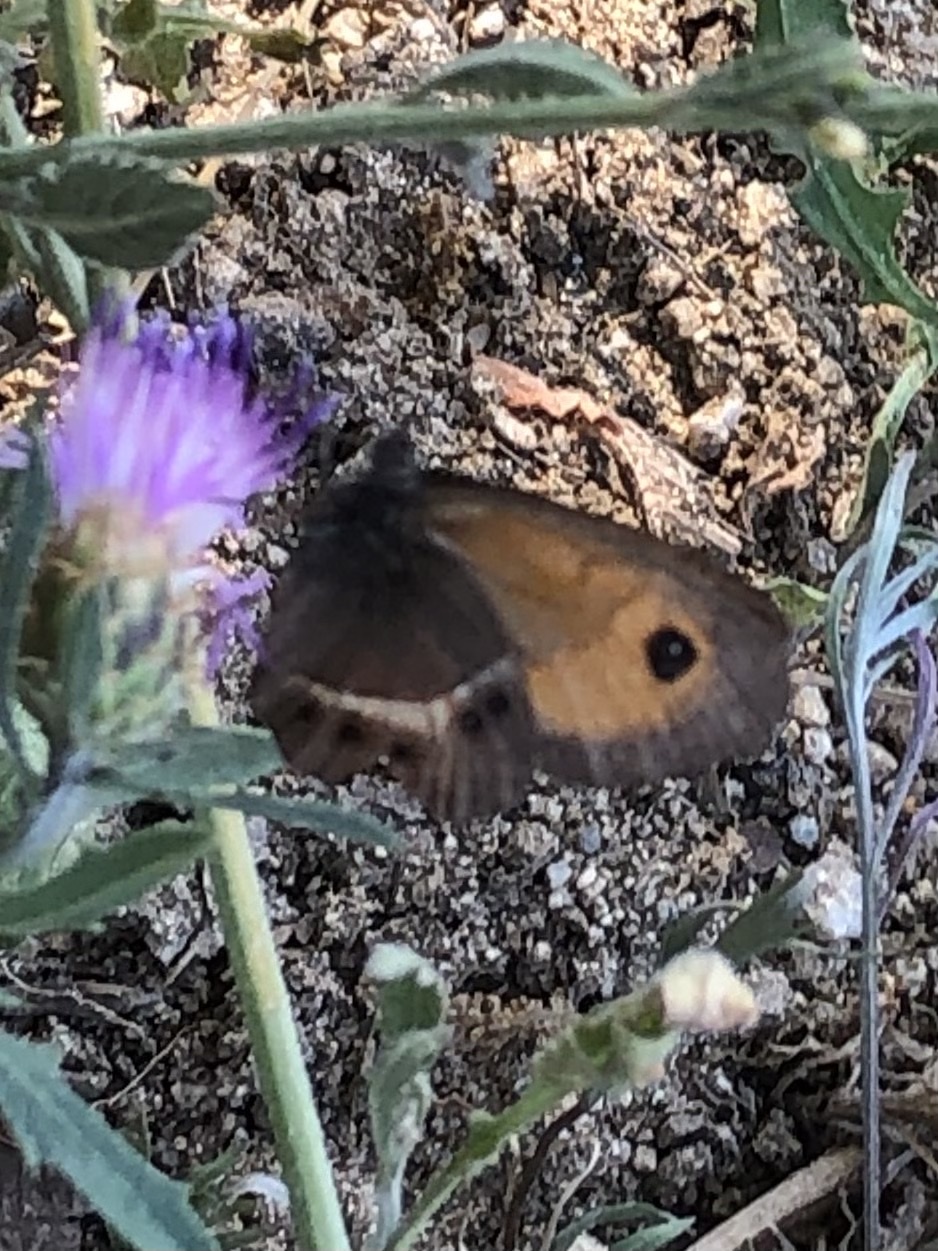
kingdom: Animalia
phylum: Arthropoda
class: Insecta
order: Lepidoptera
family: Nymphalidae
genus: Pyronia
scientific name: Pyronia bathseba
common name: Spanish gatekeeper
